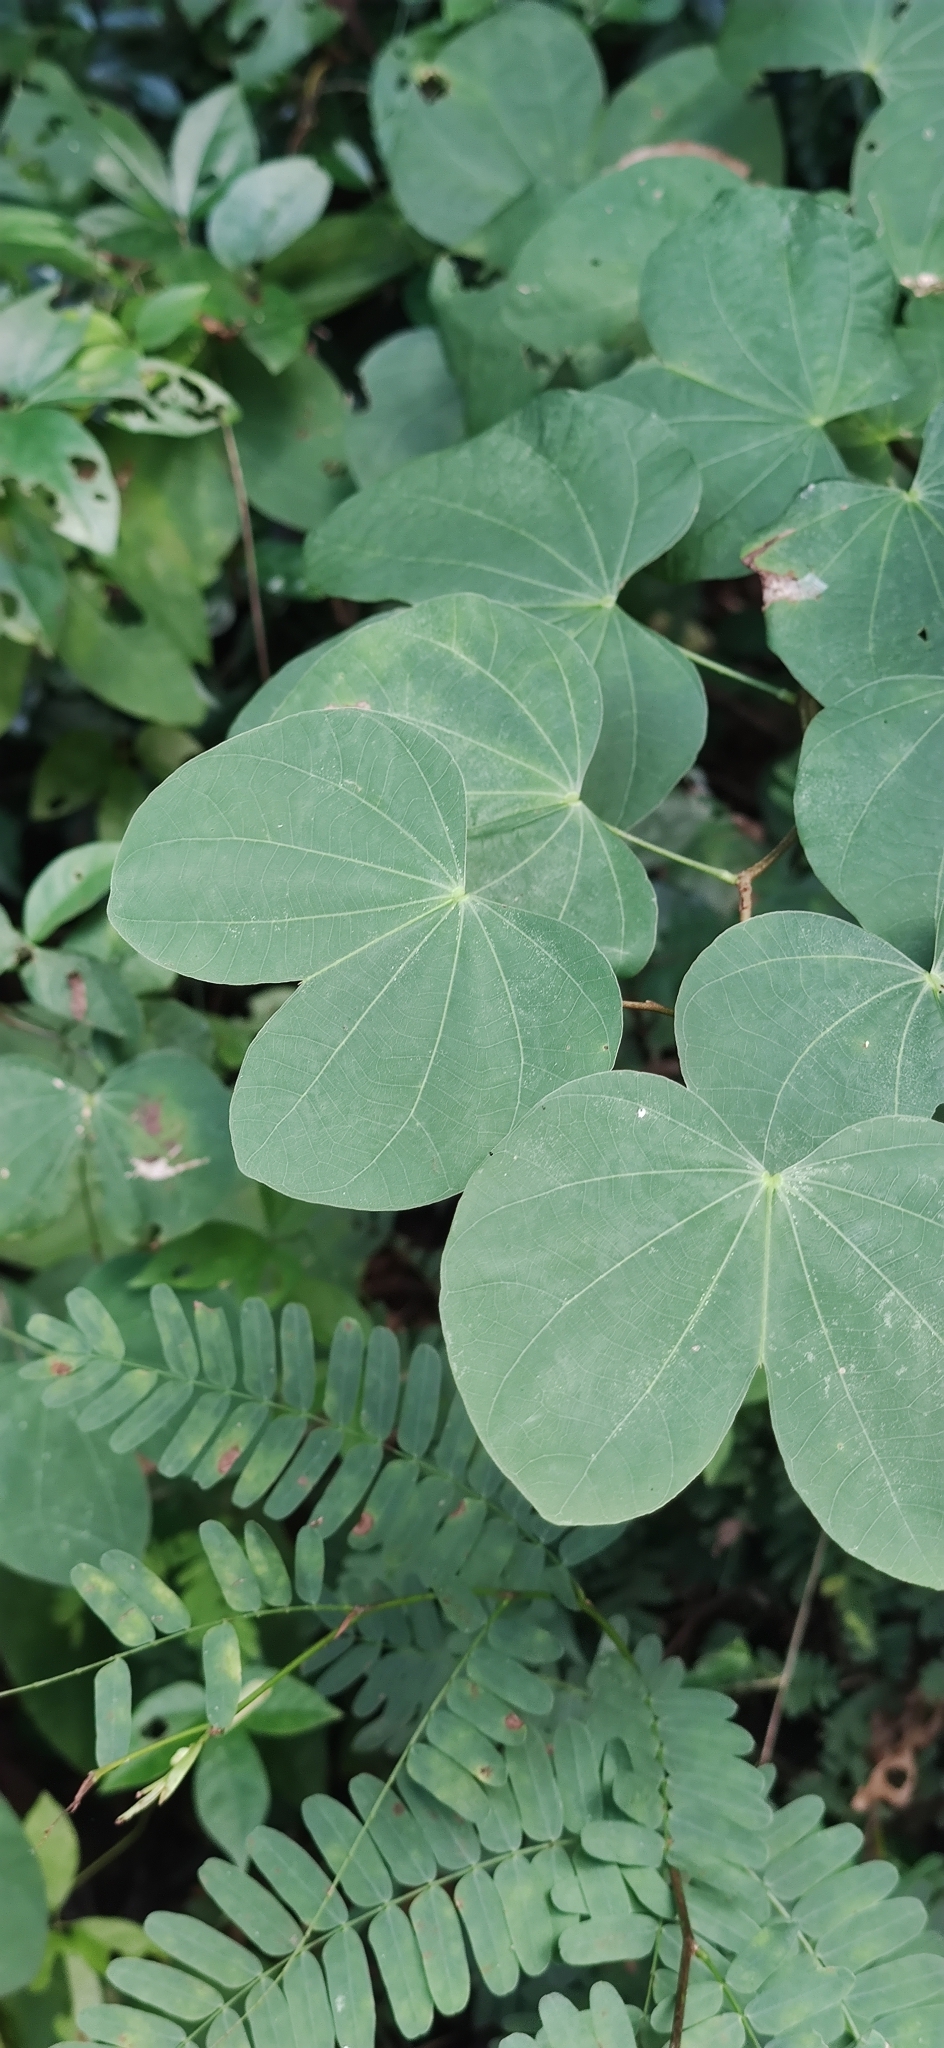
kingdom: Plantae
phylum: Tracheophyta
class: Magnoliopsida
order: Fabales
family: Fabaceae
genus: Bauhinia
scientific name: Bauhinia purpurea
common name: Butterfly-tree
